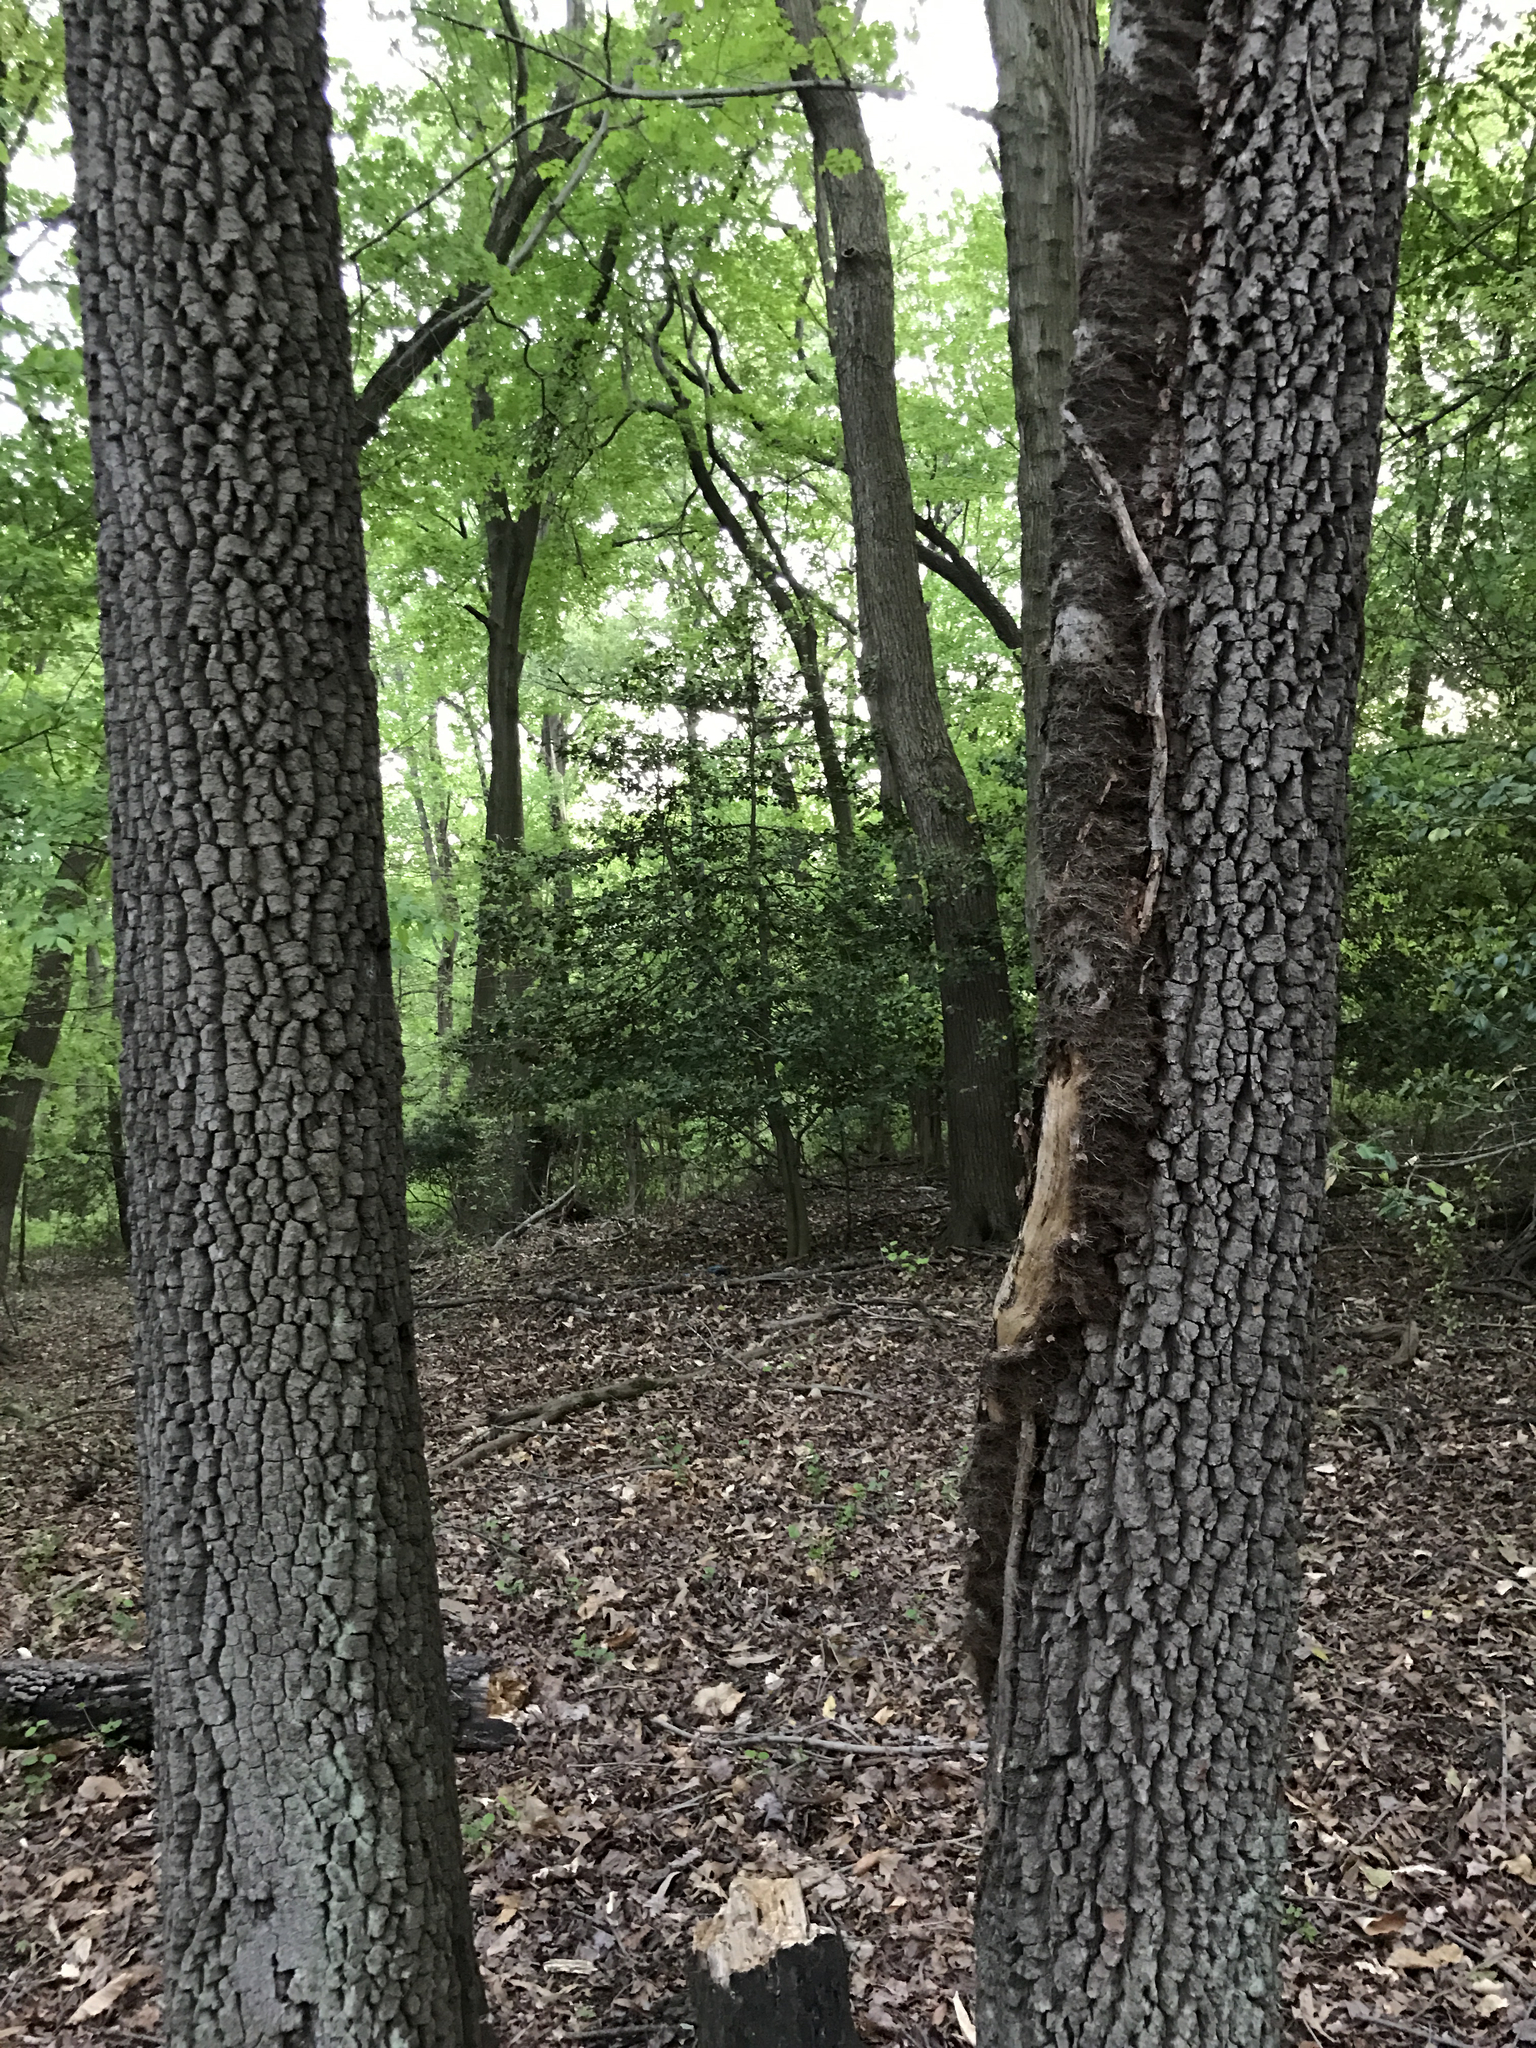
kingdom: Plantae
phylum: Tracheophyta
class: Magnoliopsida
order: Ericales
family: Ebenaceae
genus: Diospyros
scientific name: Diospyros virginiana
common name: Persimmon
